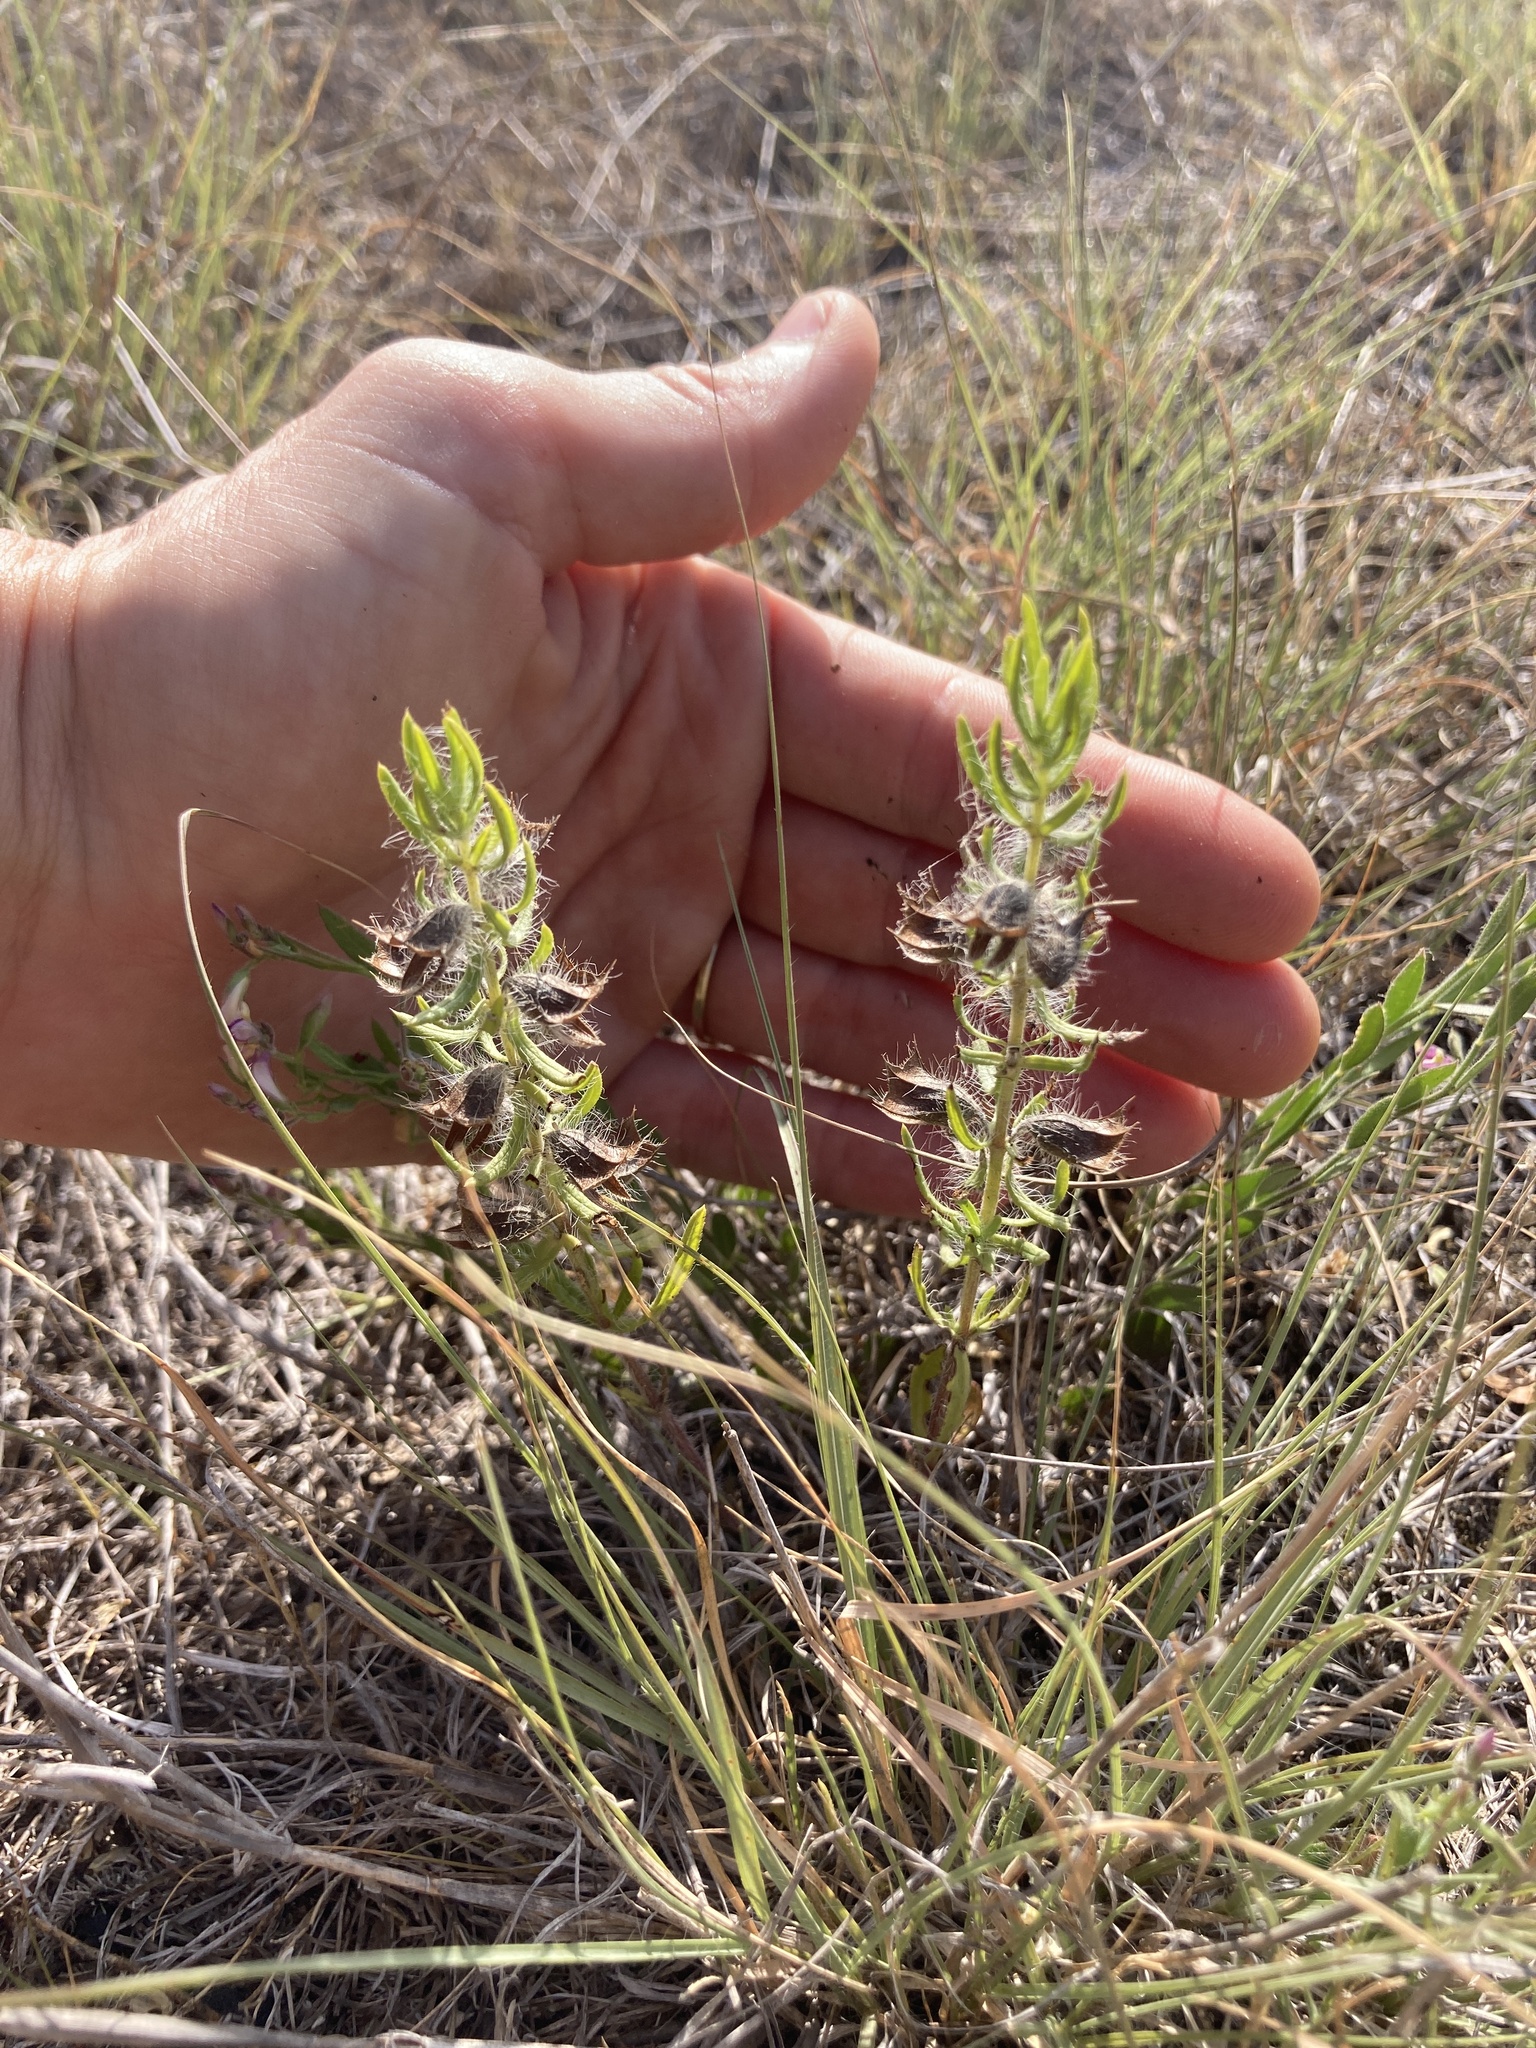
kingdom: Plantae
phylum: Tracheophyta
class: Magnoliopsida
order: Lamiales
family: Lamiaceae
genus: Salvia
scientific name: Salvia texana
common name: Texas sage
